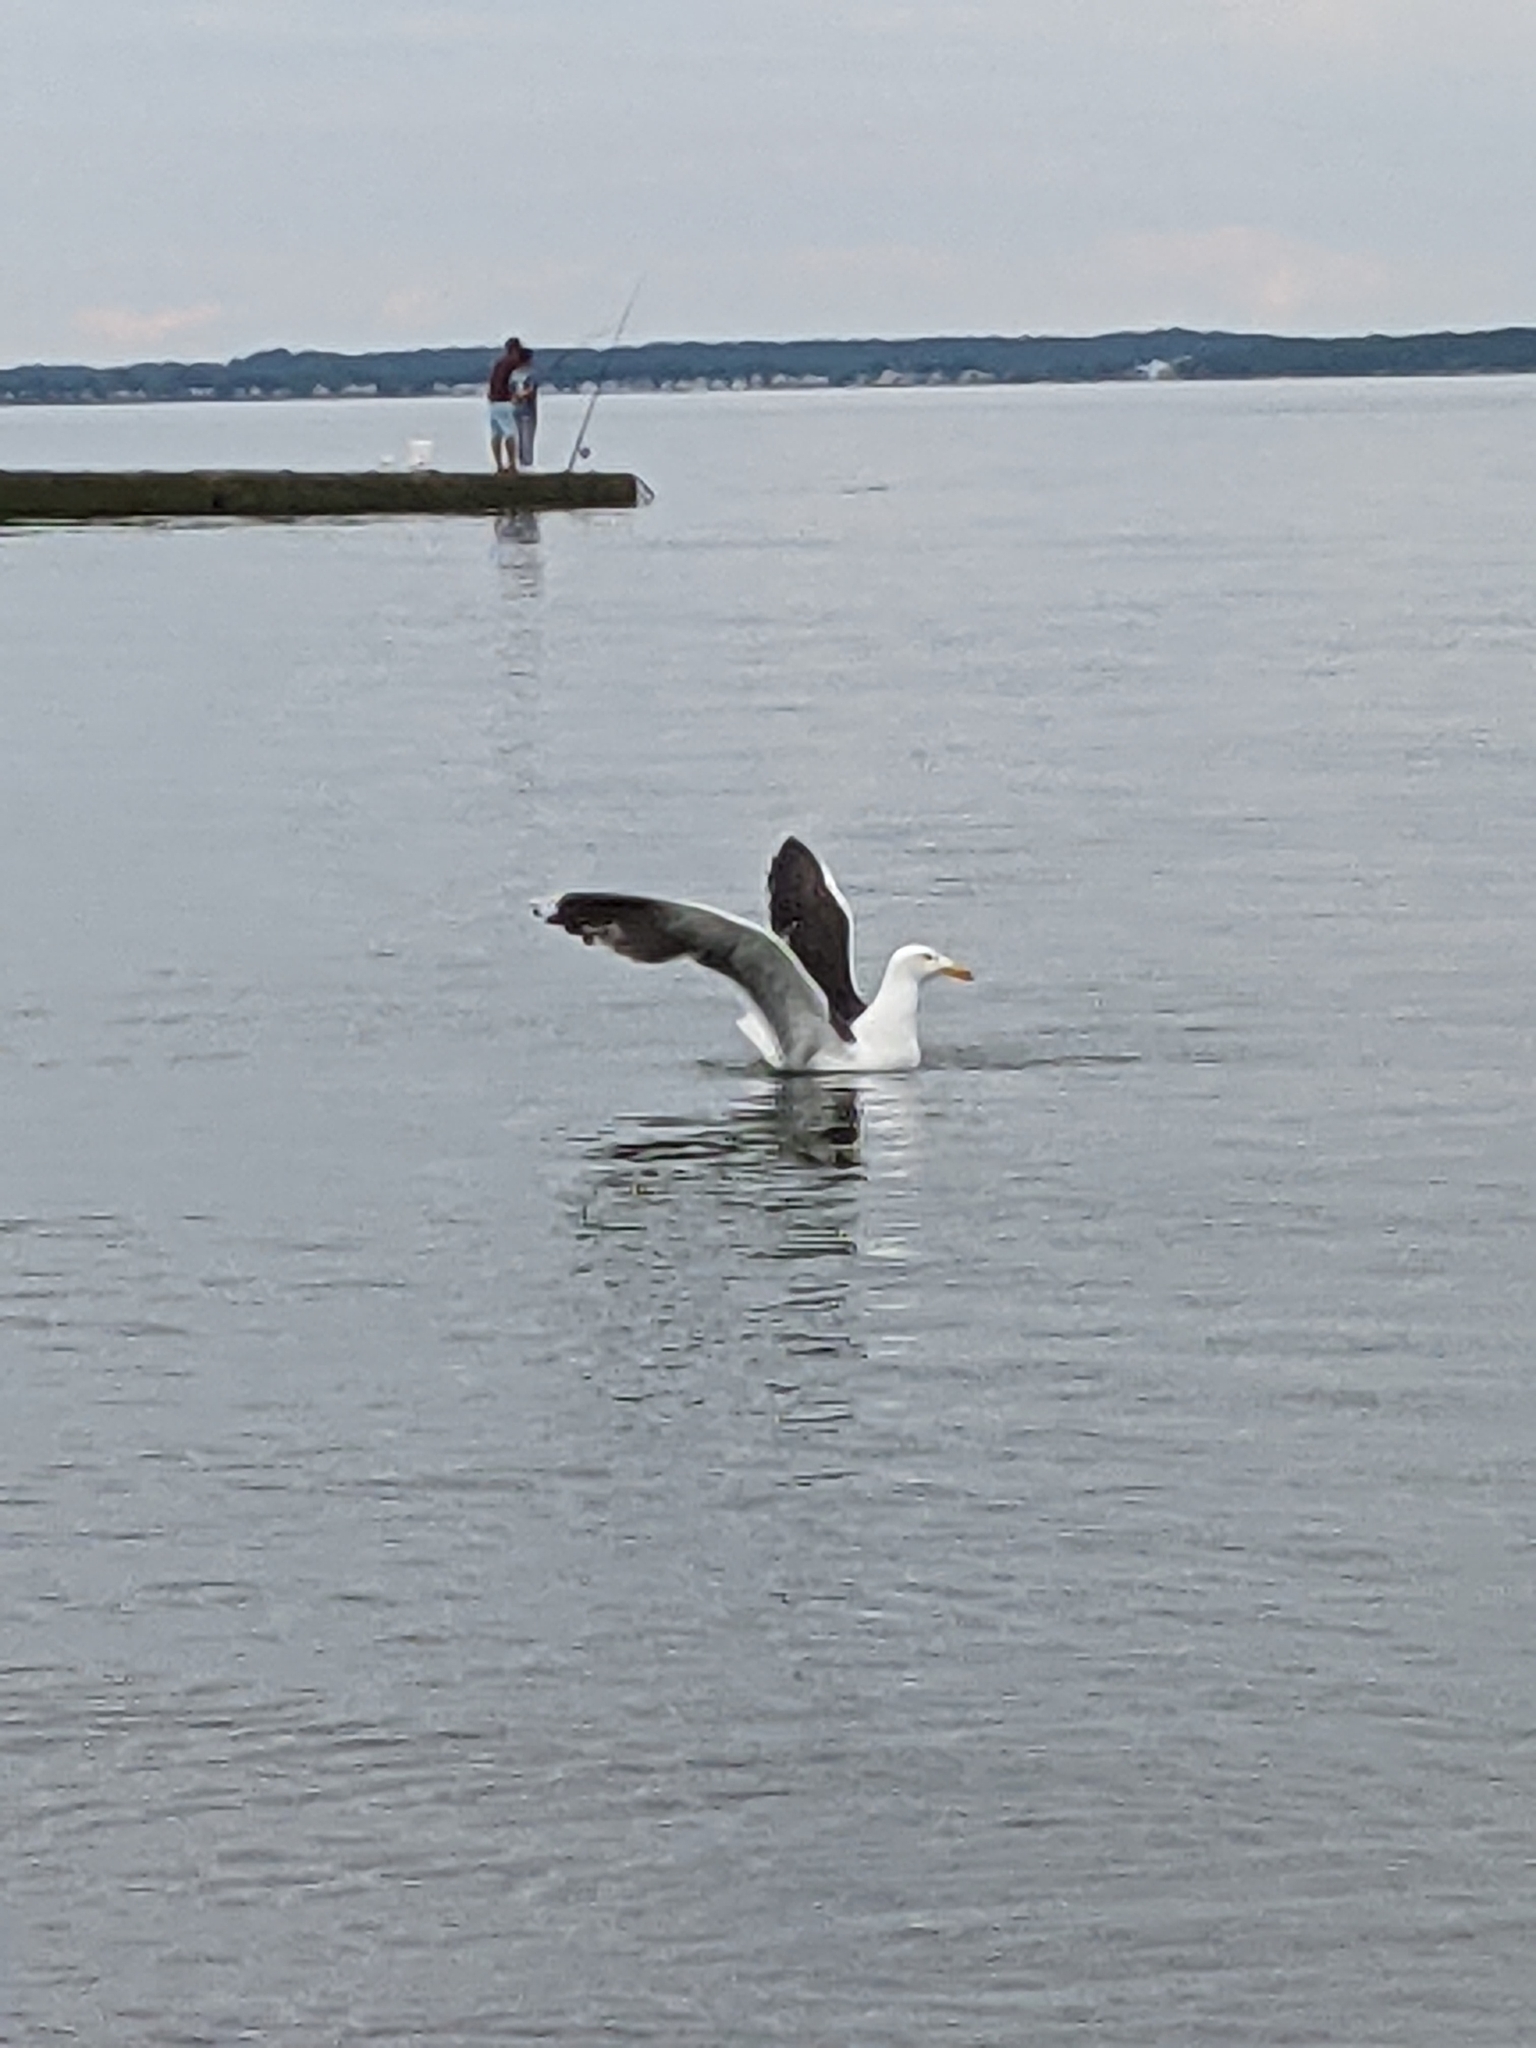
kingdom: Animalia
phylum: Chordata
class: Aves
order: Charadriiformes
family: Laridae
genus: Larus
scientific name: Larus marinus
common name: Great black-backed gull
